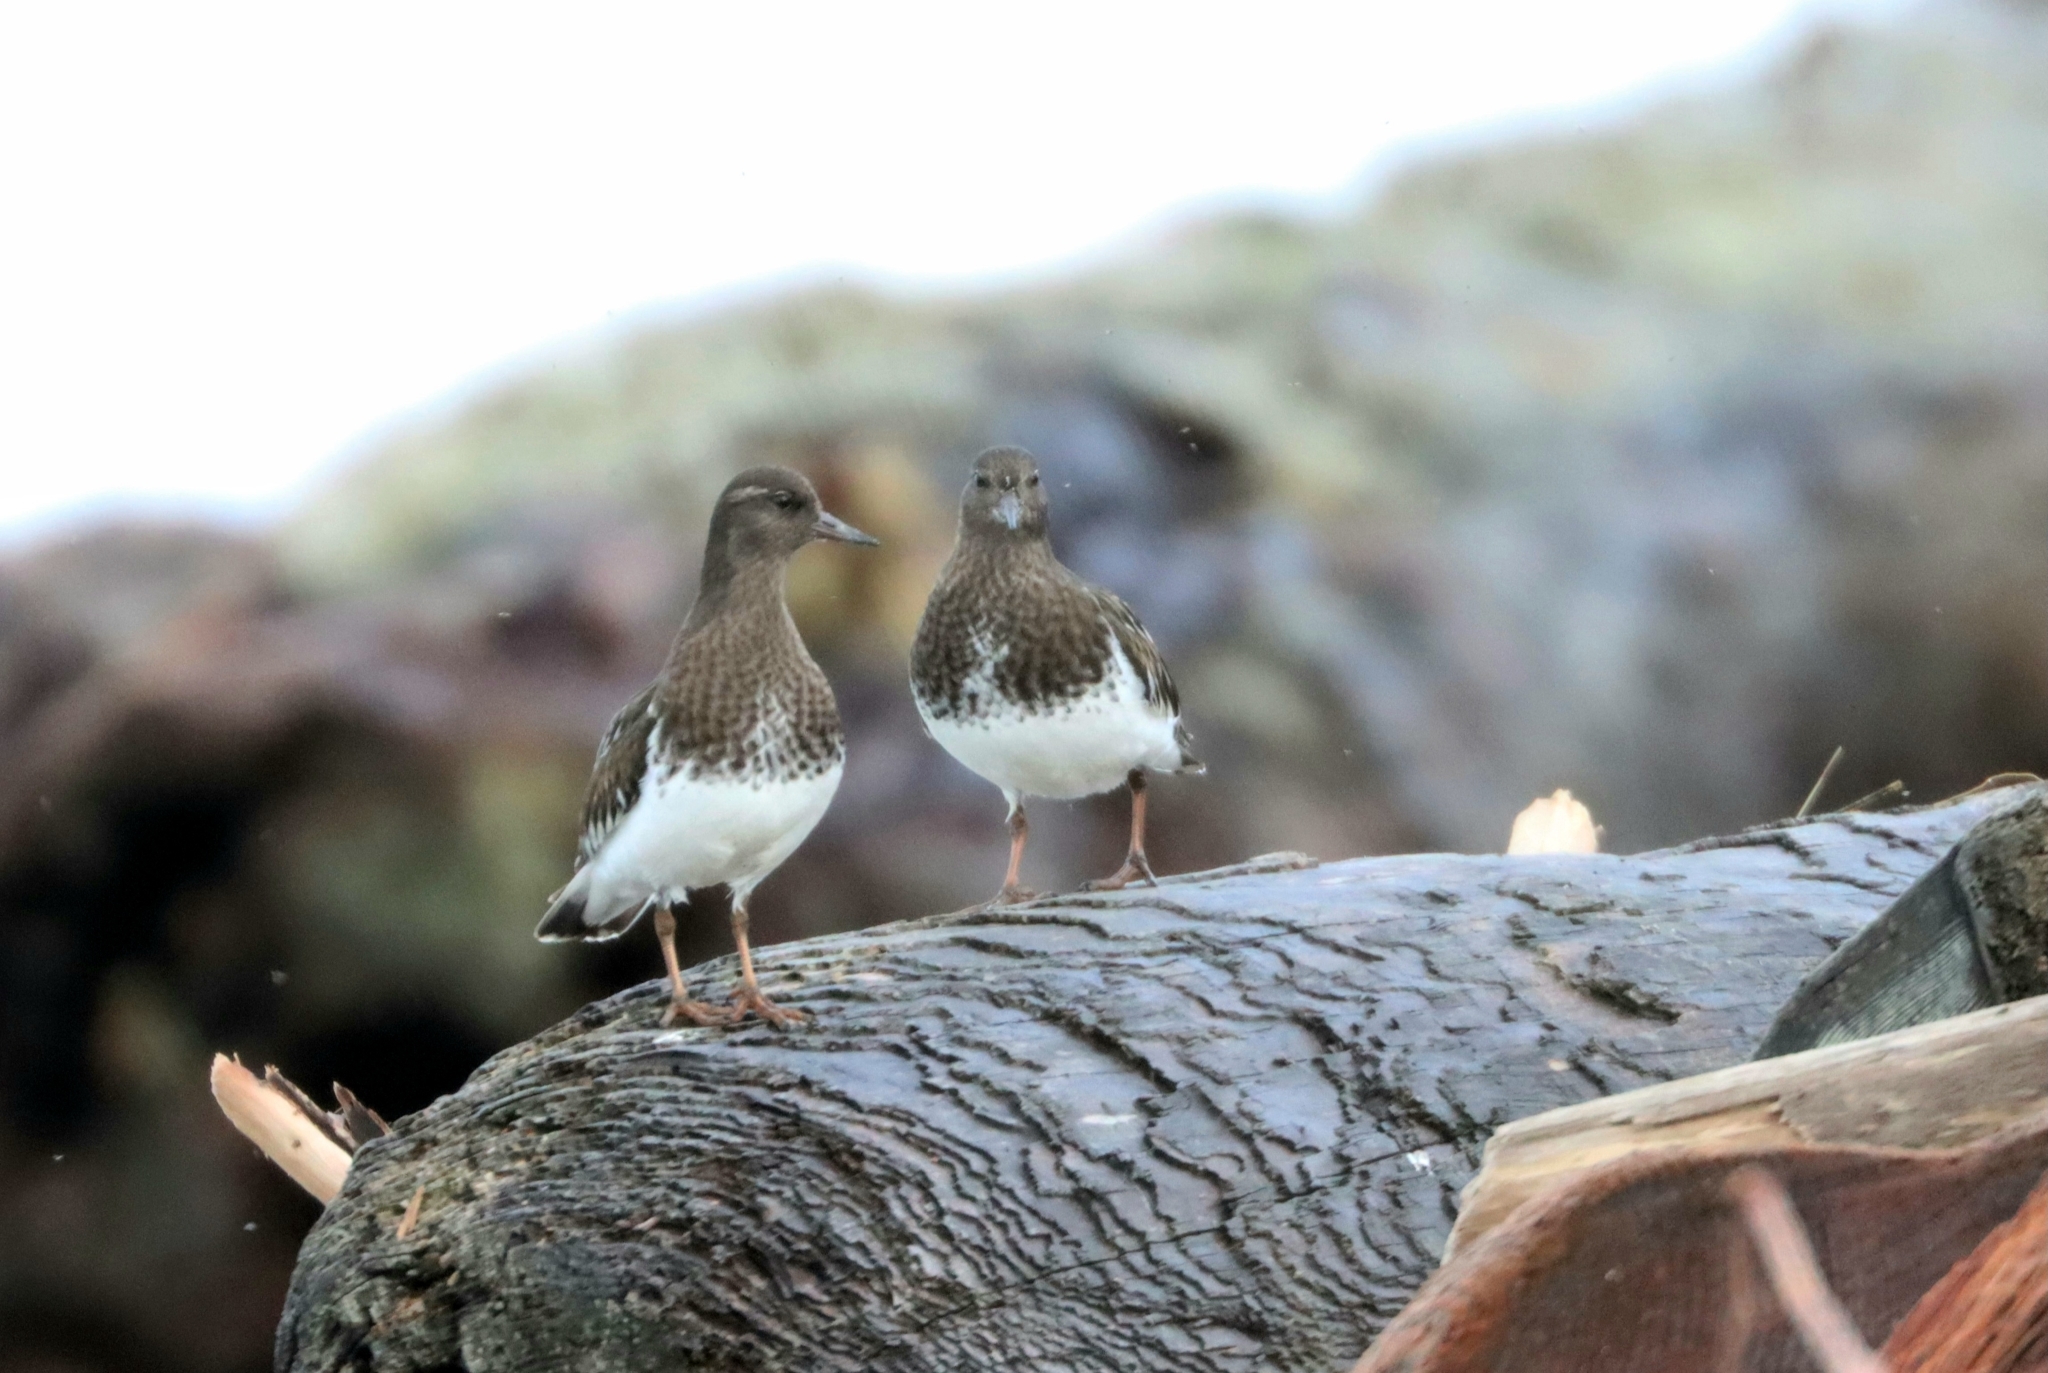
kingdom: Animalia
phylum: Chordata
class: Aves
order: Charadriiformes
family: Scolopacidae
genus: Arenaria
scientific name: Arenaria melanocephala
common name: Black turnstone
